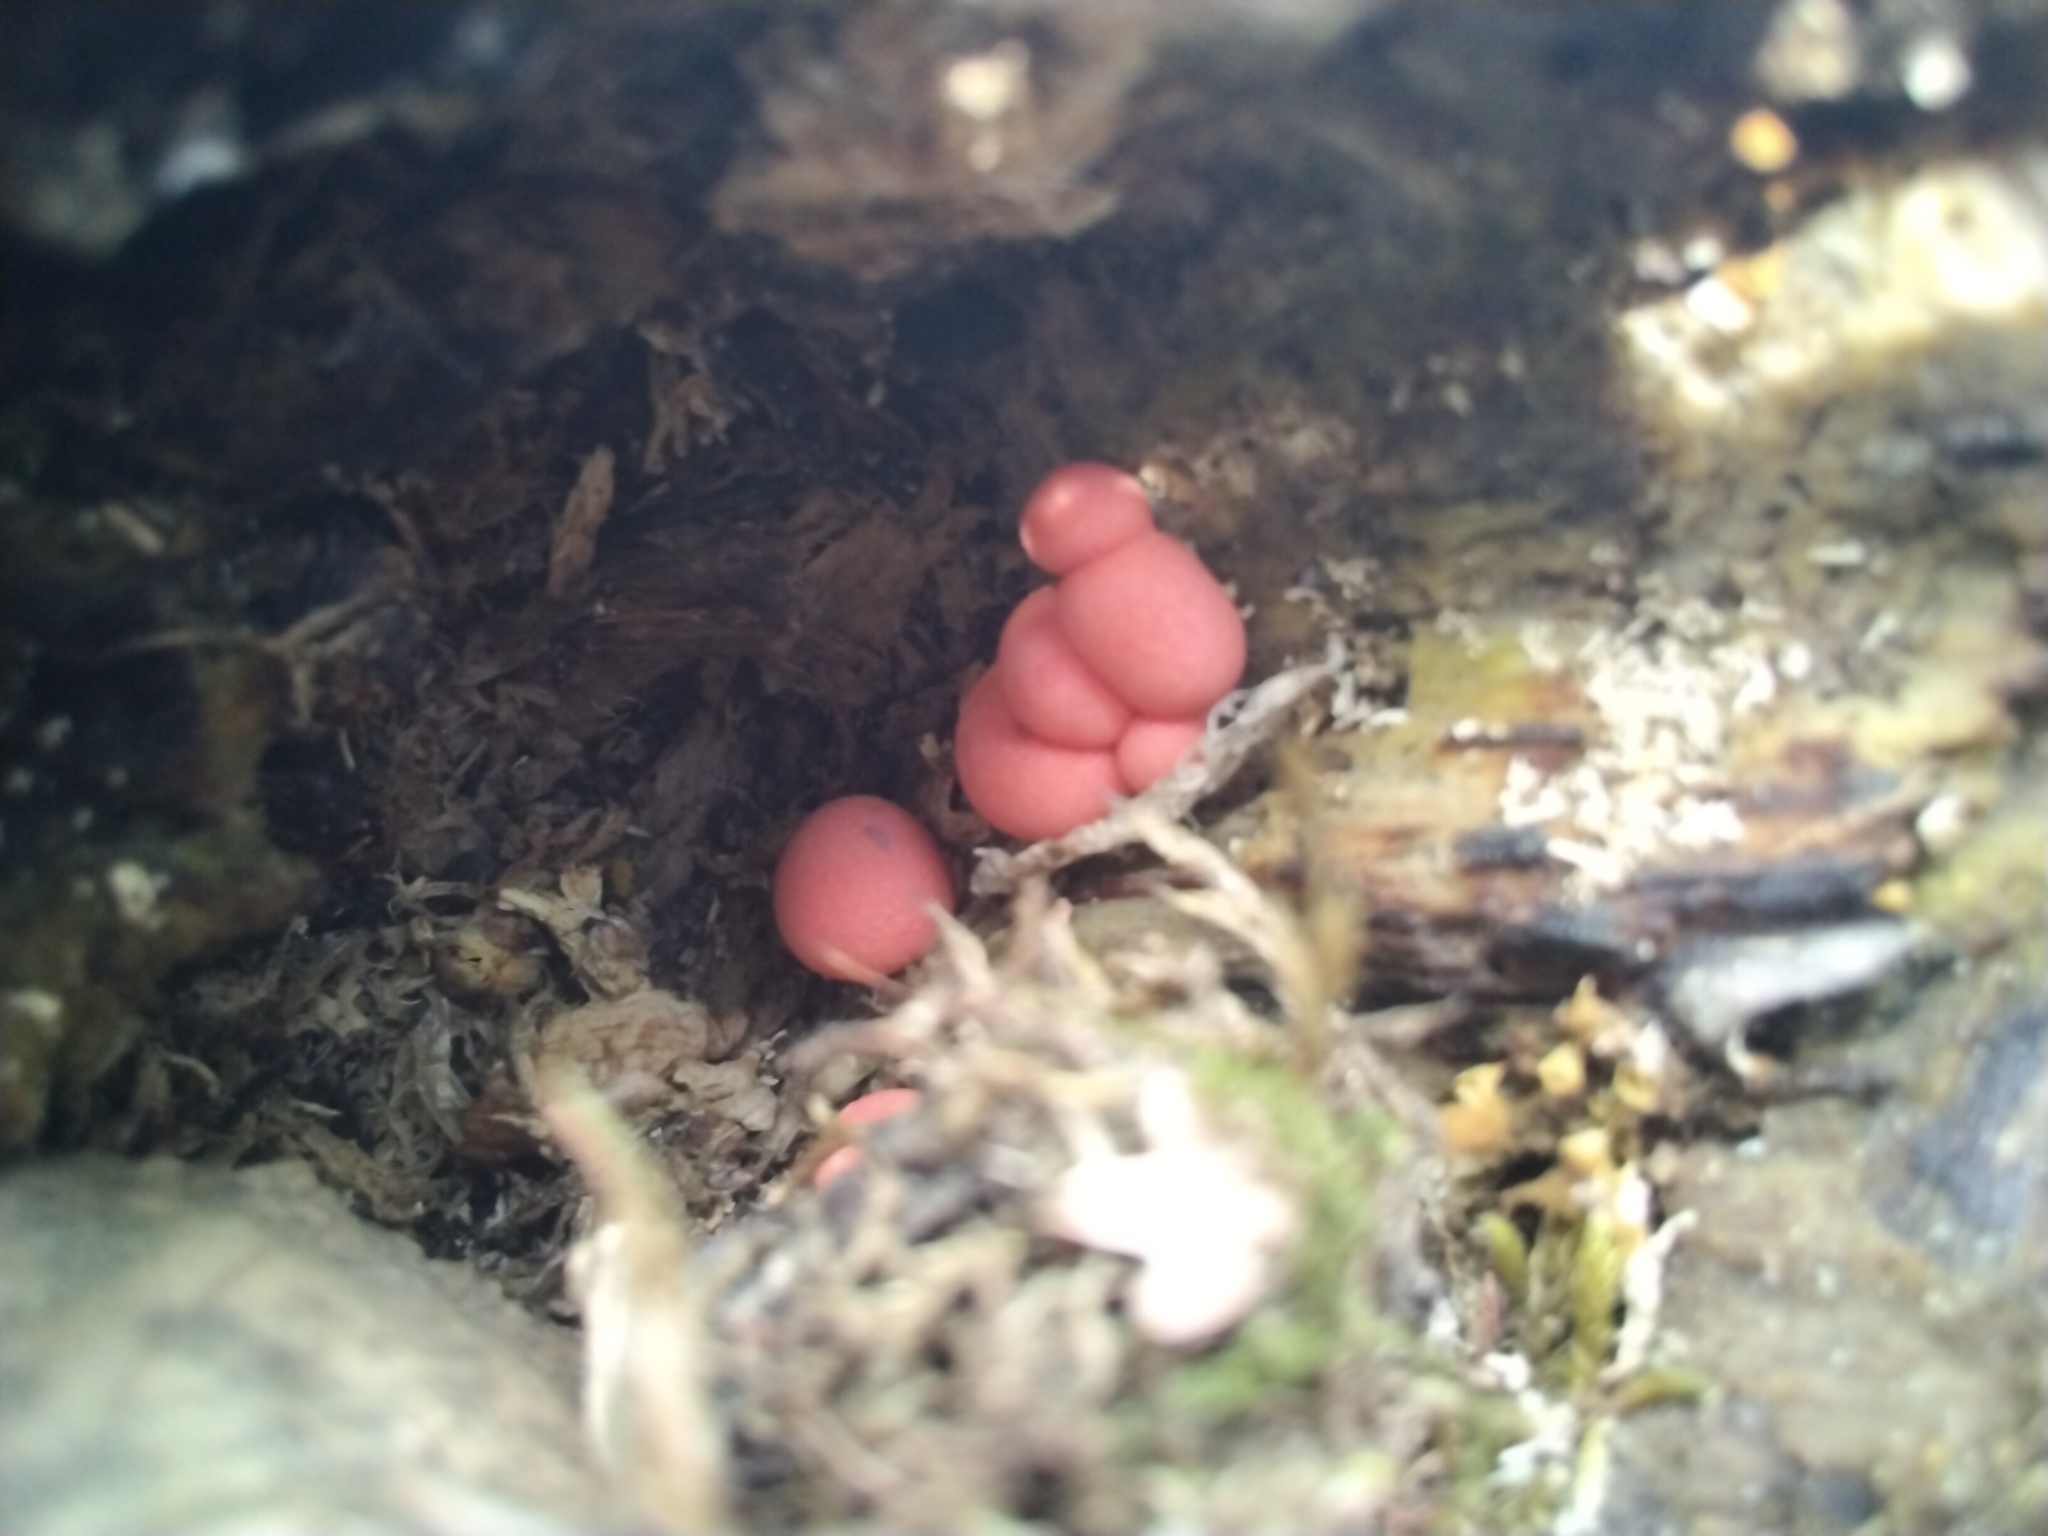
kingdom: Protozoa
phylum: Mycetozoa
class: Myxomycetes
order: Cribrariales
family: Tubiferaceae
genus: Lycogala
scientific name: Lycogala epidendrum
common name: Wolf's milk
